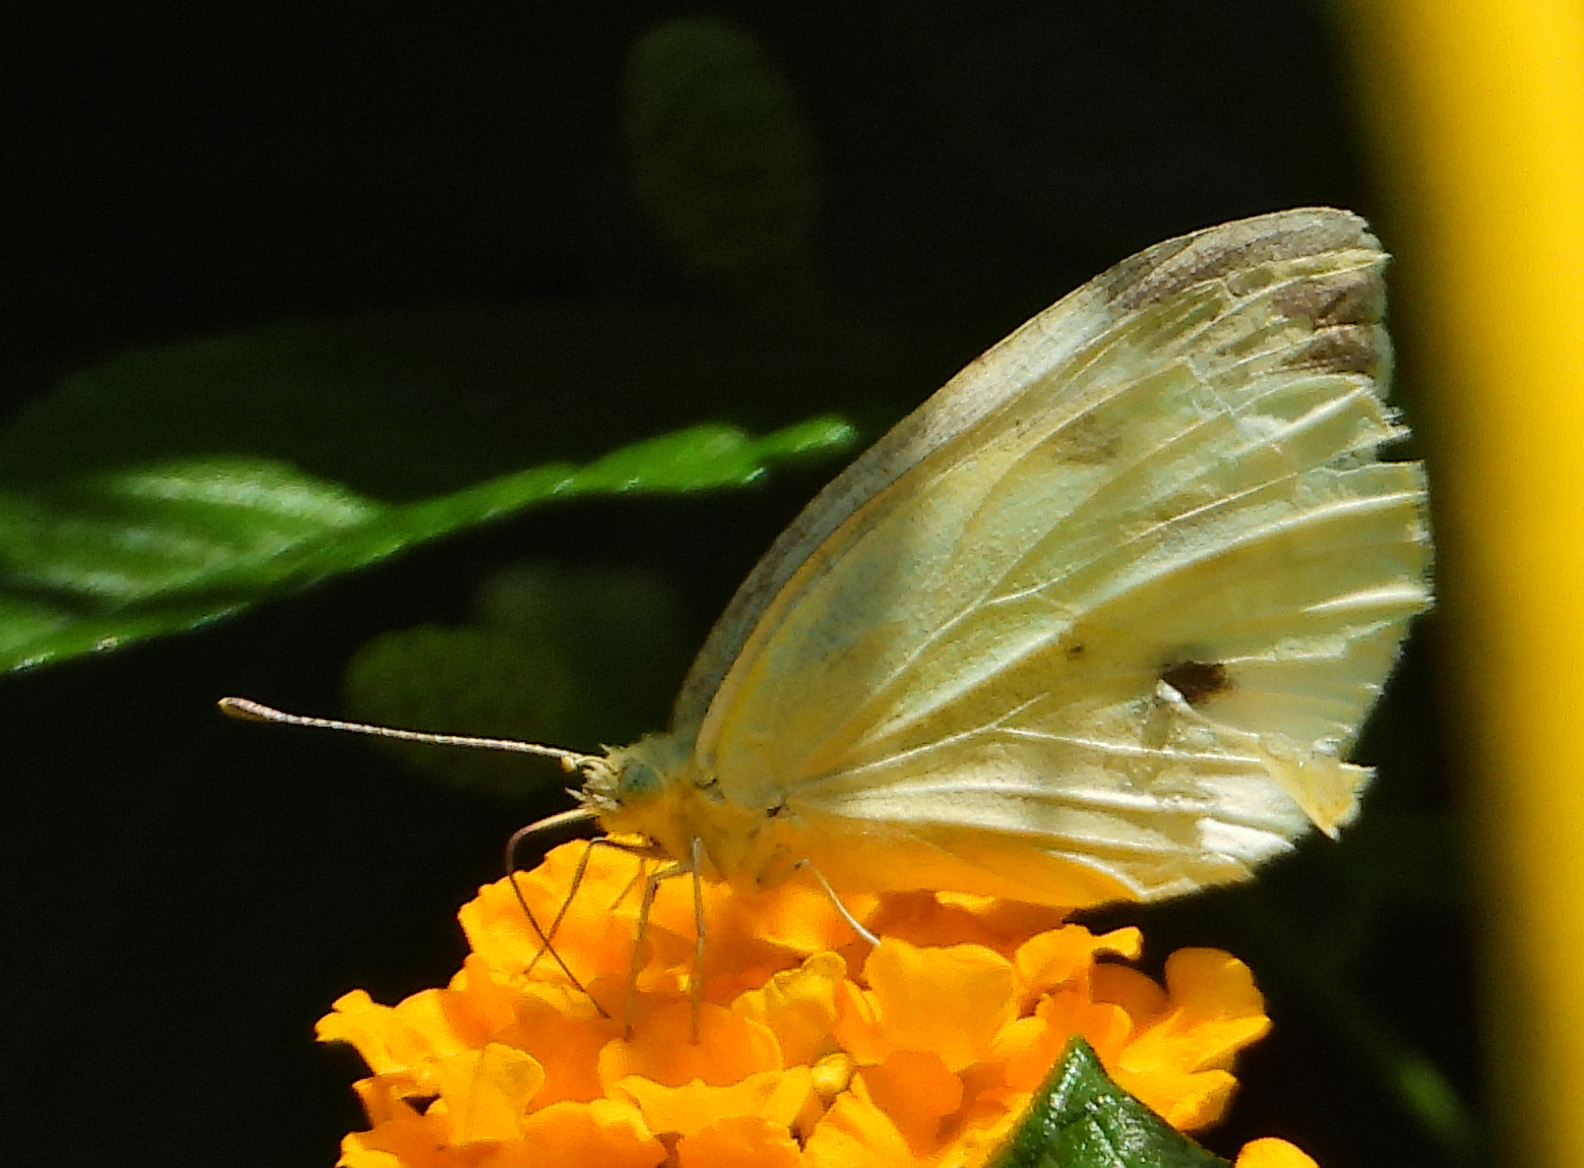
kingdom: Animalia
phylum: Arthropoda
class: Insecta
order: Lepidoptera
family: Pieridae
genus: Pieris
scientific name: Pieris rapae
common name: Small white
